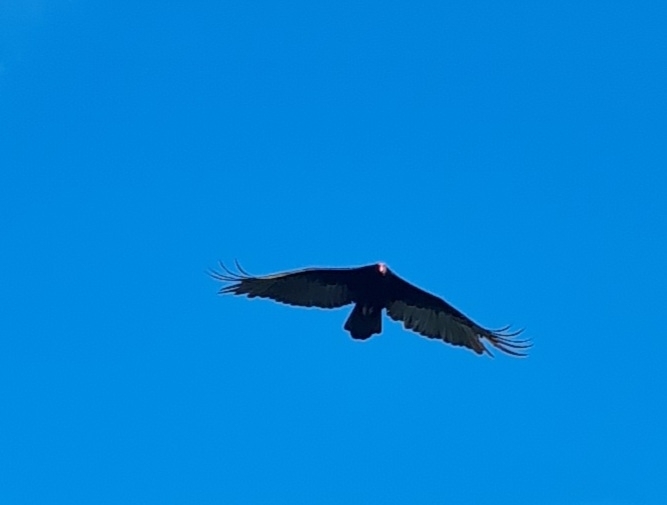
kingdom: Animalia
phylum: Chordata
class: Aves
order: Accipitriformes
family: Cathartidae
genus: Cathartes
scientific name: Cathartes aura
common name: Turkey vulture
